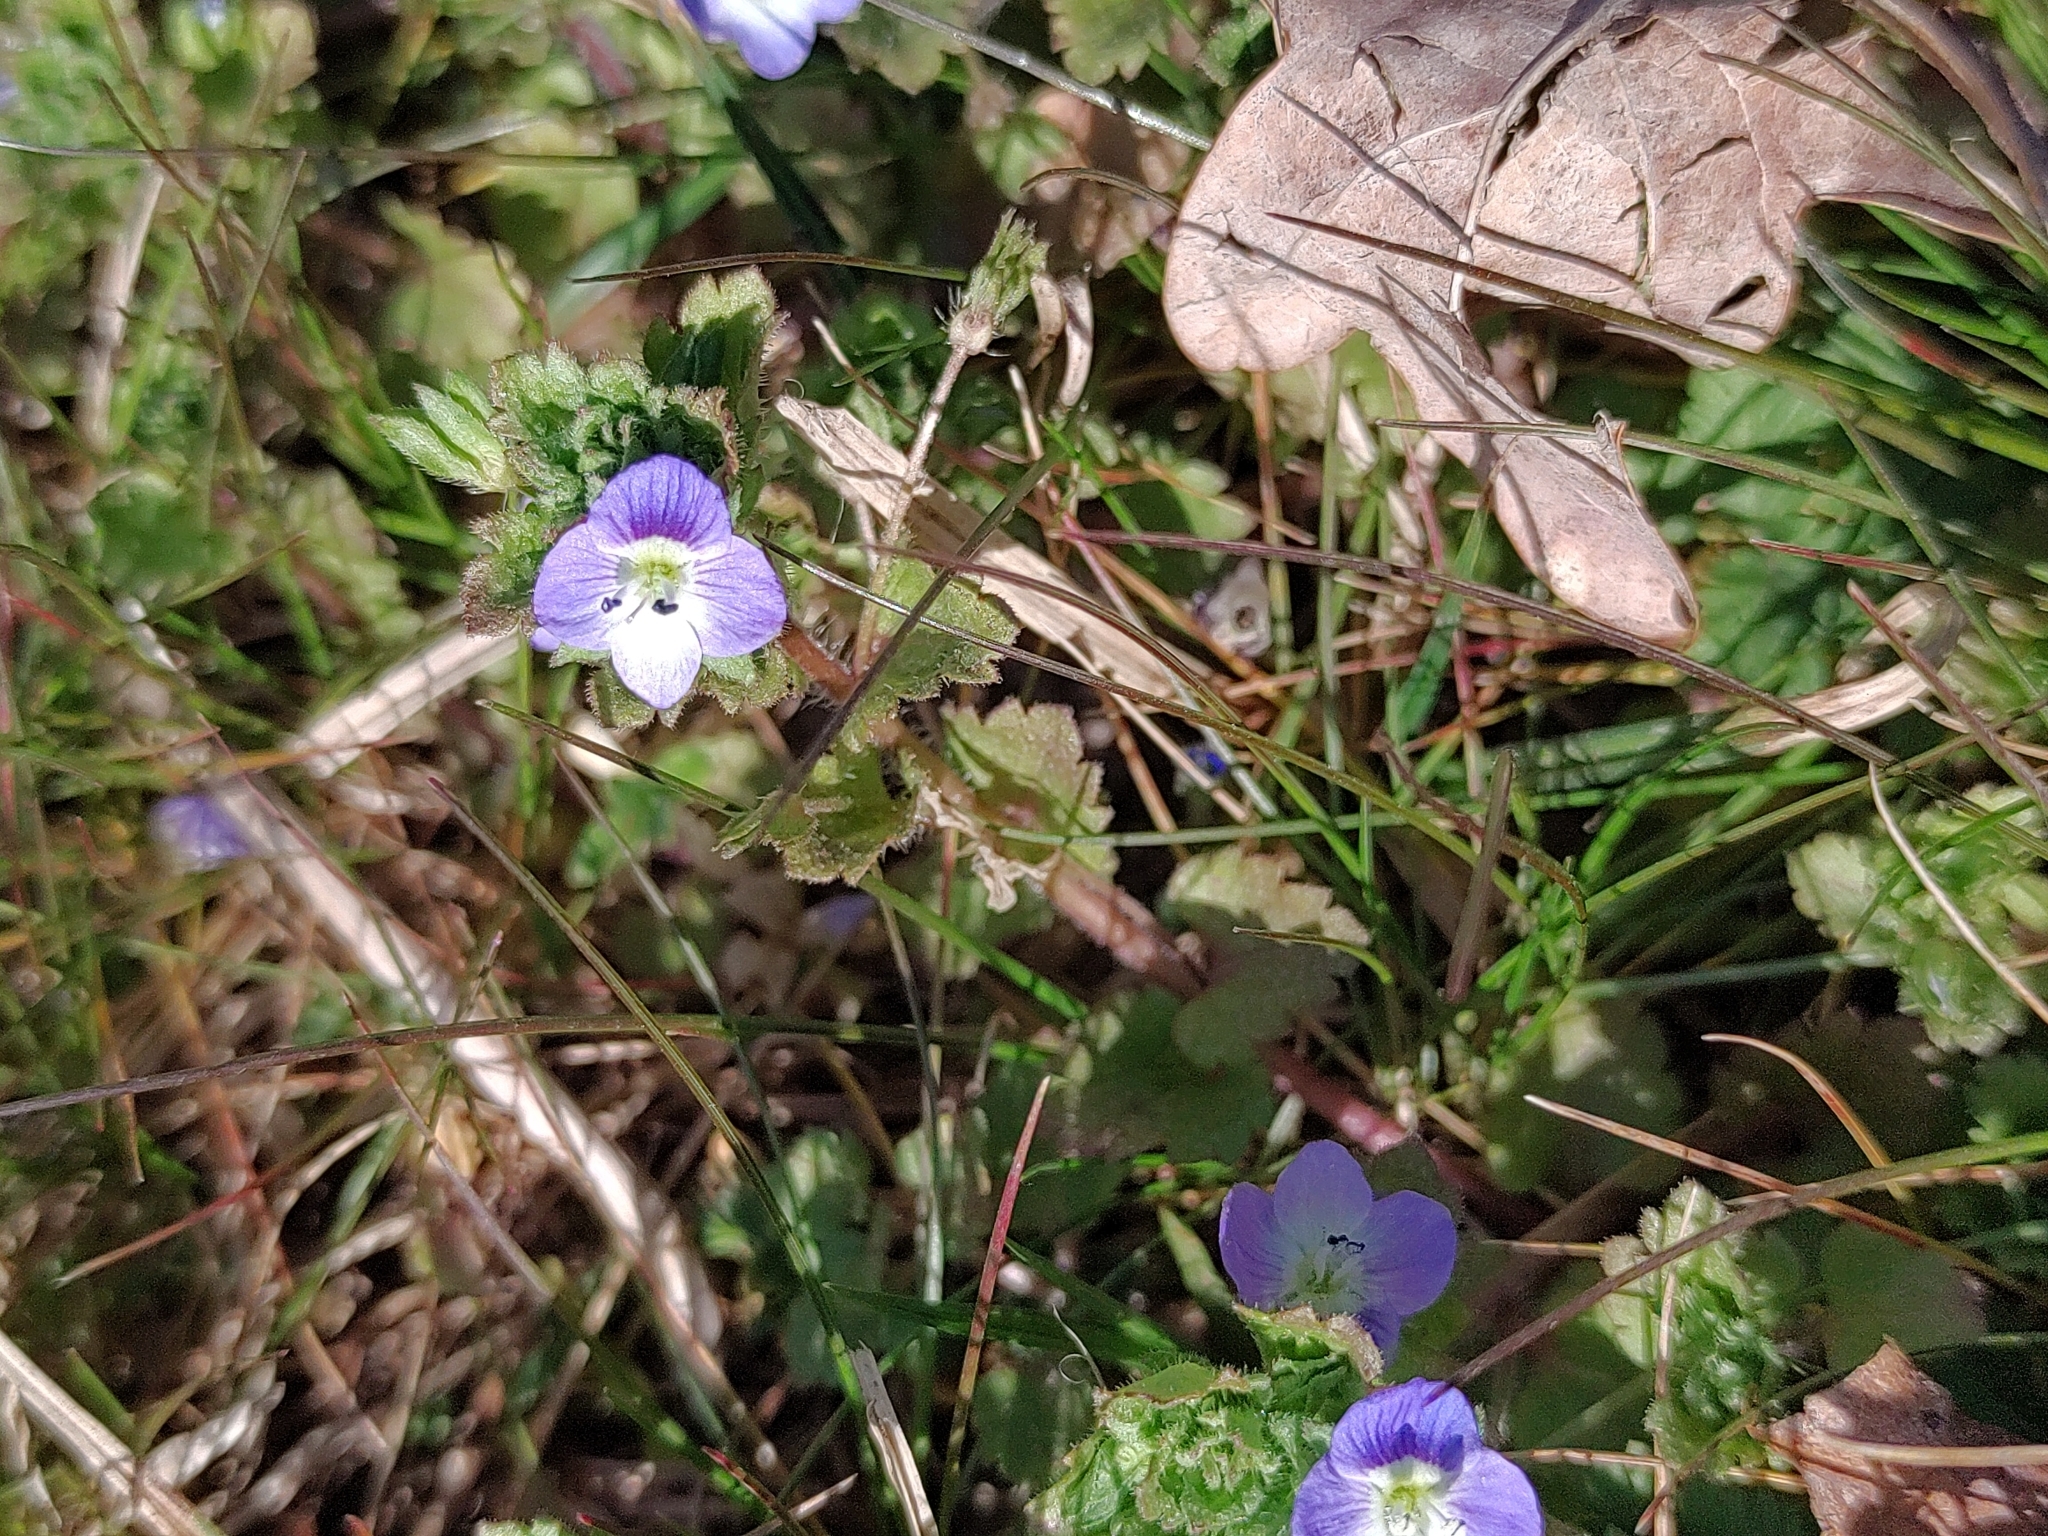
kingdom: Plantae
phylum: Tracheophyta
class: Magnoliopsida
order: Lamiales
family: Plantaginaceae
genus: Veronica
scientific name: Veronica persica
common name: Common field-speedwell
